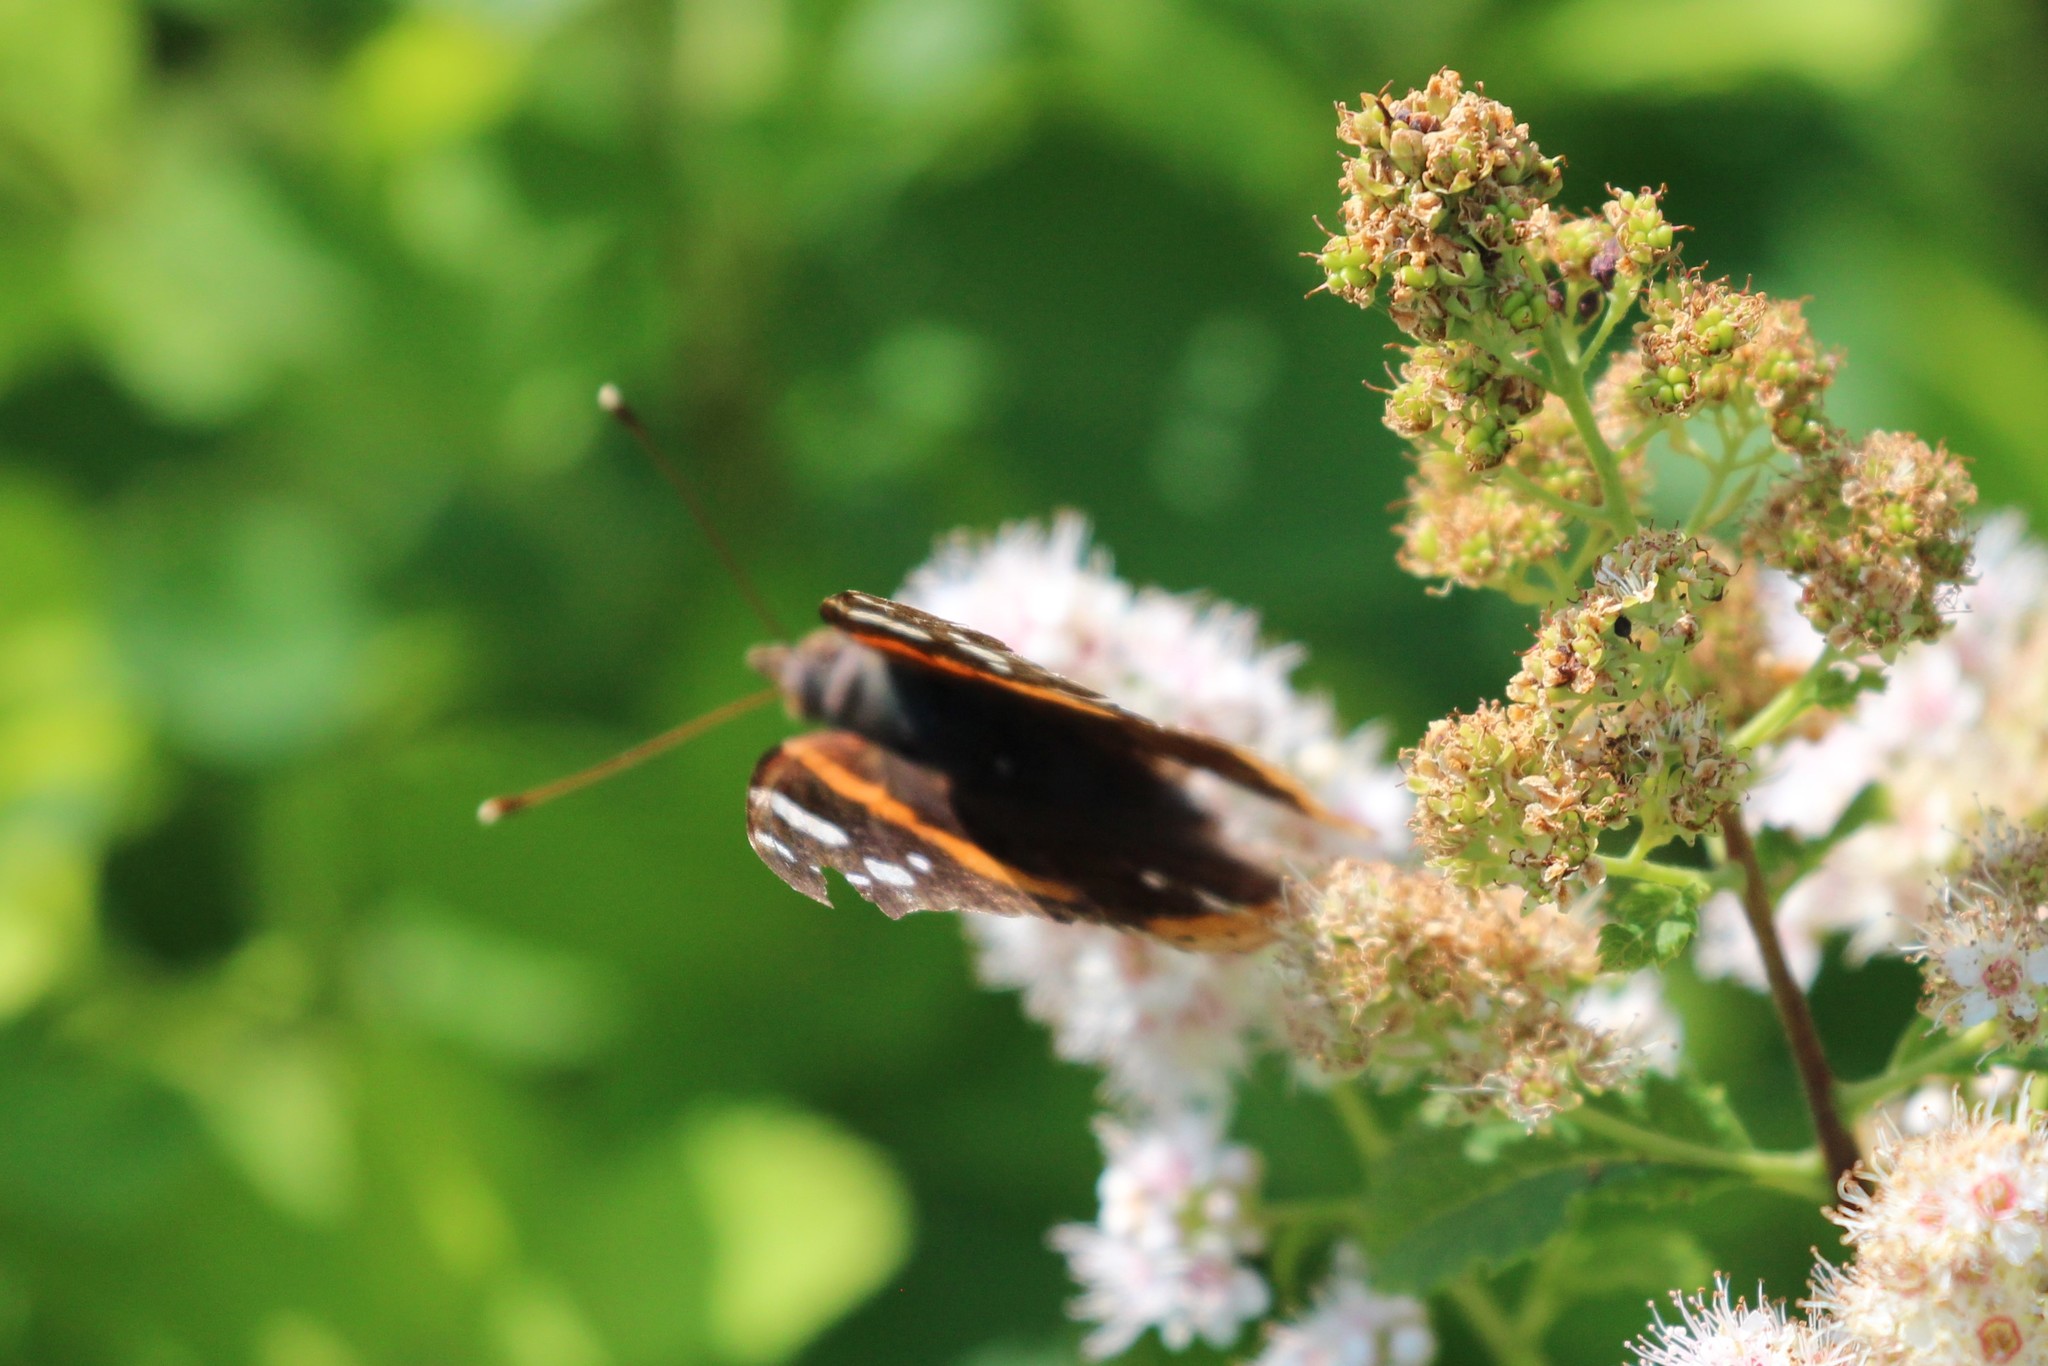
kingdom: Animalia
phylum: Arthropoda
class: Insecta
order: Lepidoptera
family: Nymphalidae
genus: Vanessa
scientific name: Vanessa atalanta
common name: Red admiral
